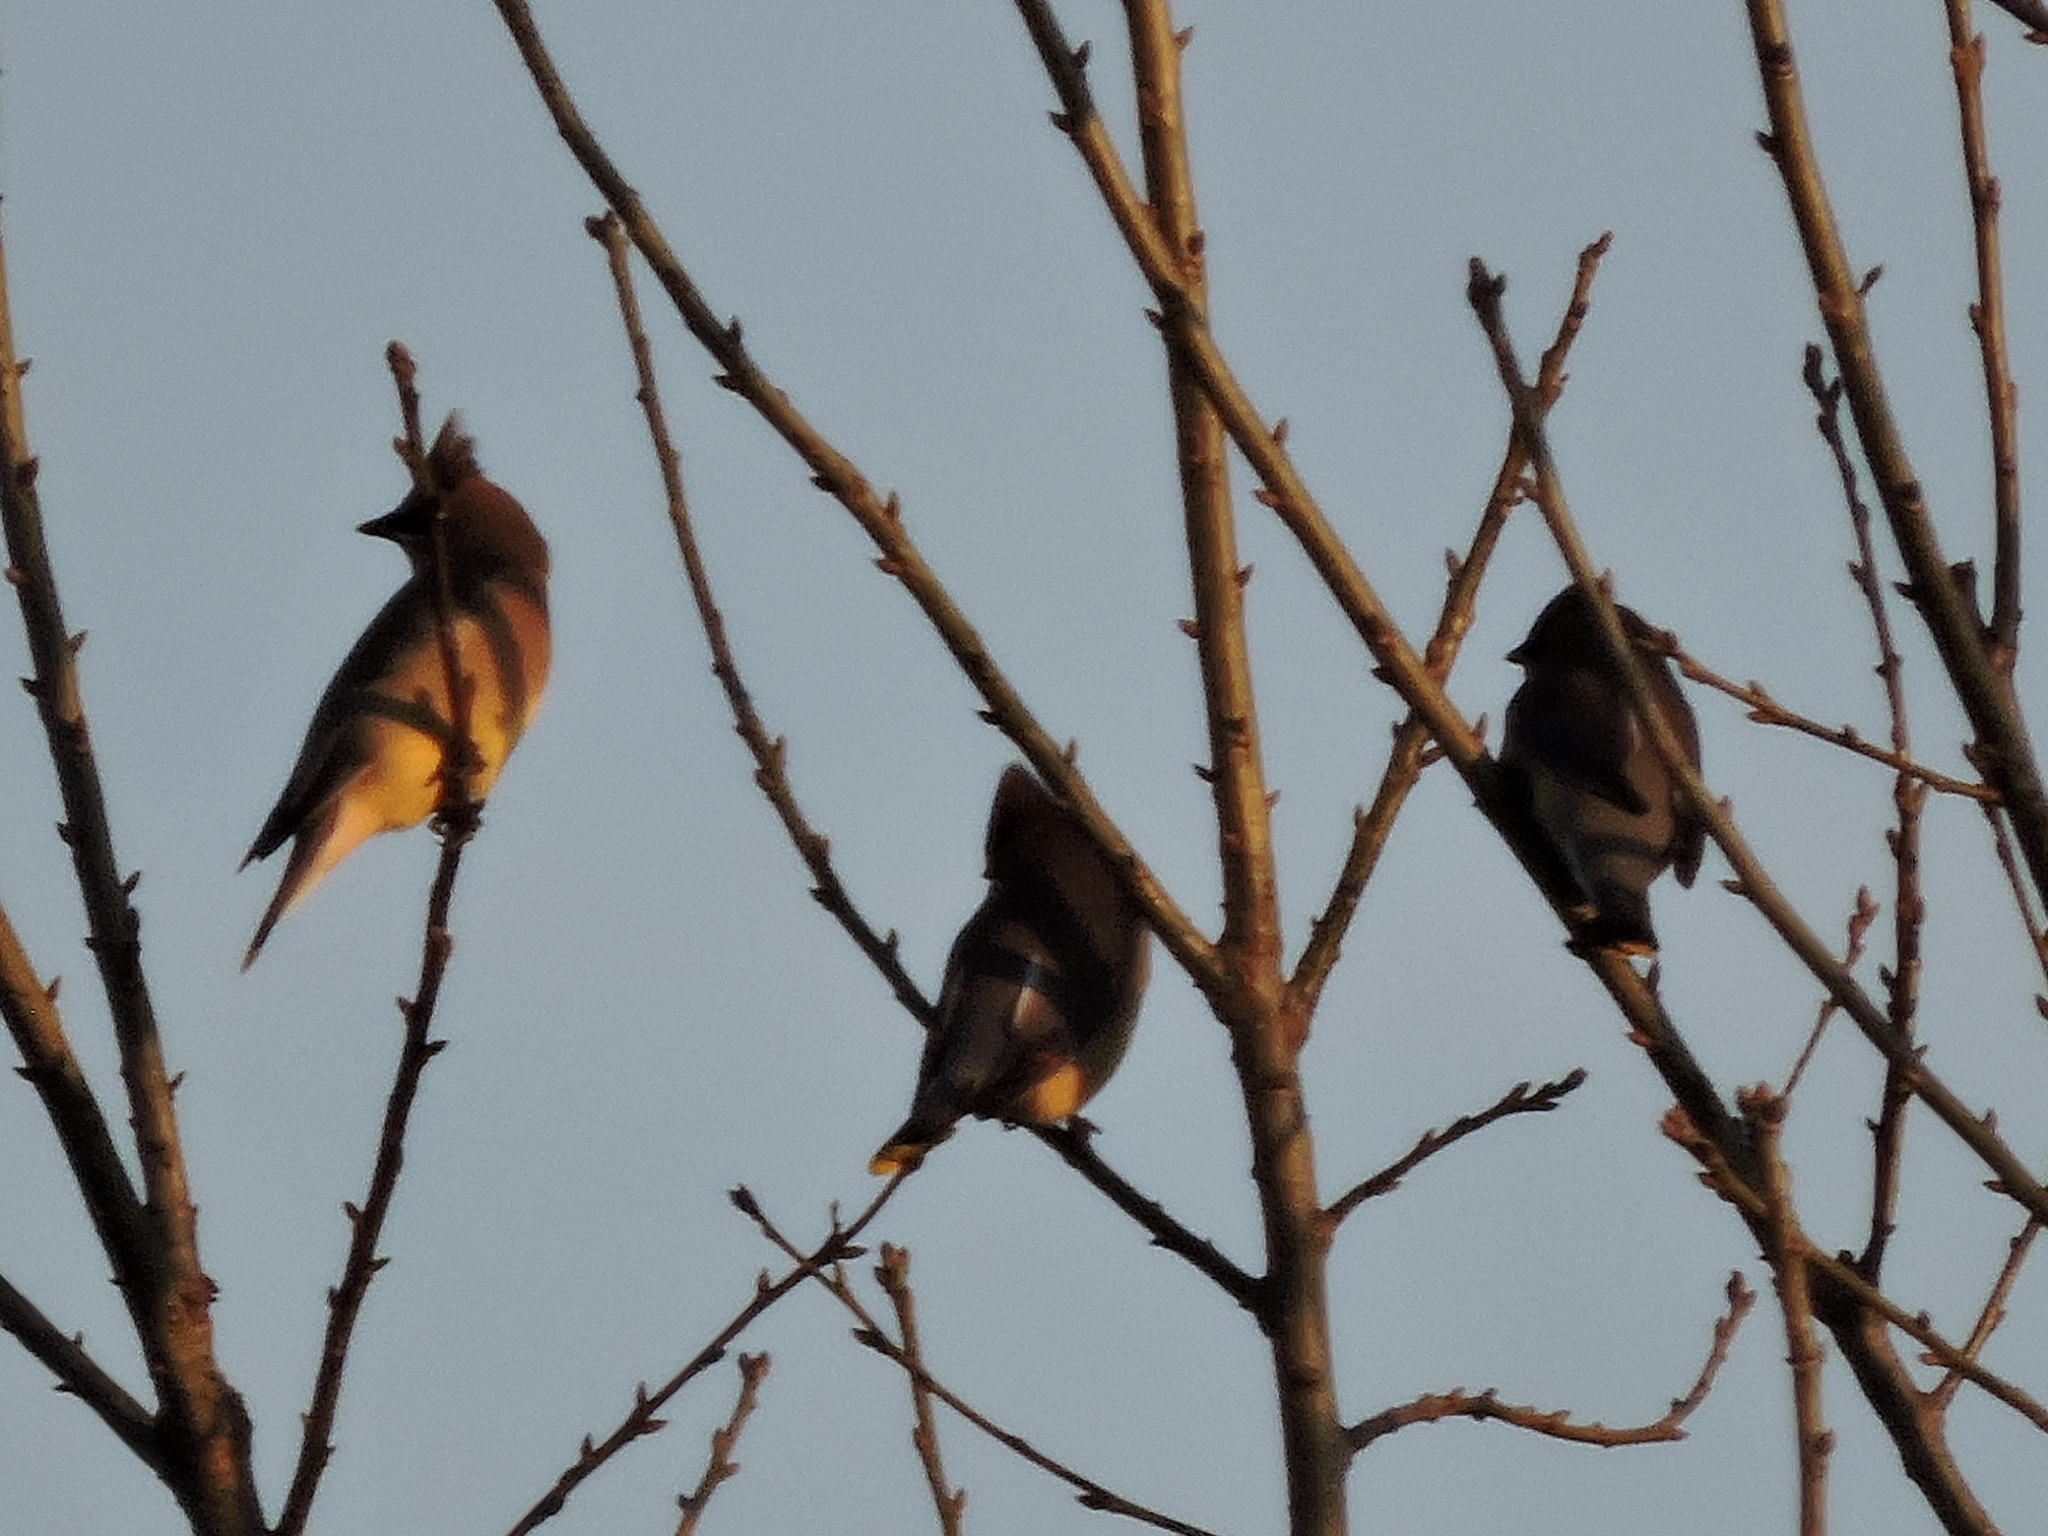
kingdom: Animalia
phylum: Chordata
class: Aves
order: Passeriformes
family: Bombycillidae
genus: Bombycilla
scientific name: Bombycilla cedrorum
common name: Cedar waxwing
